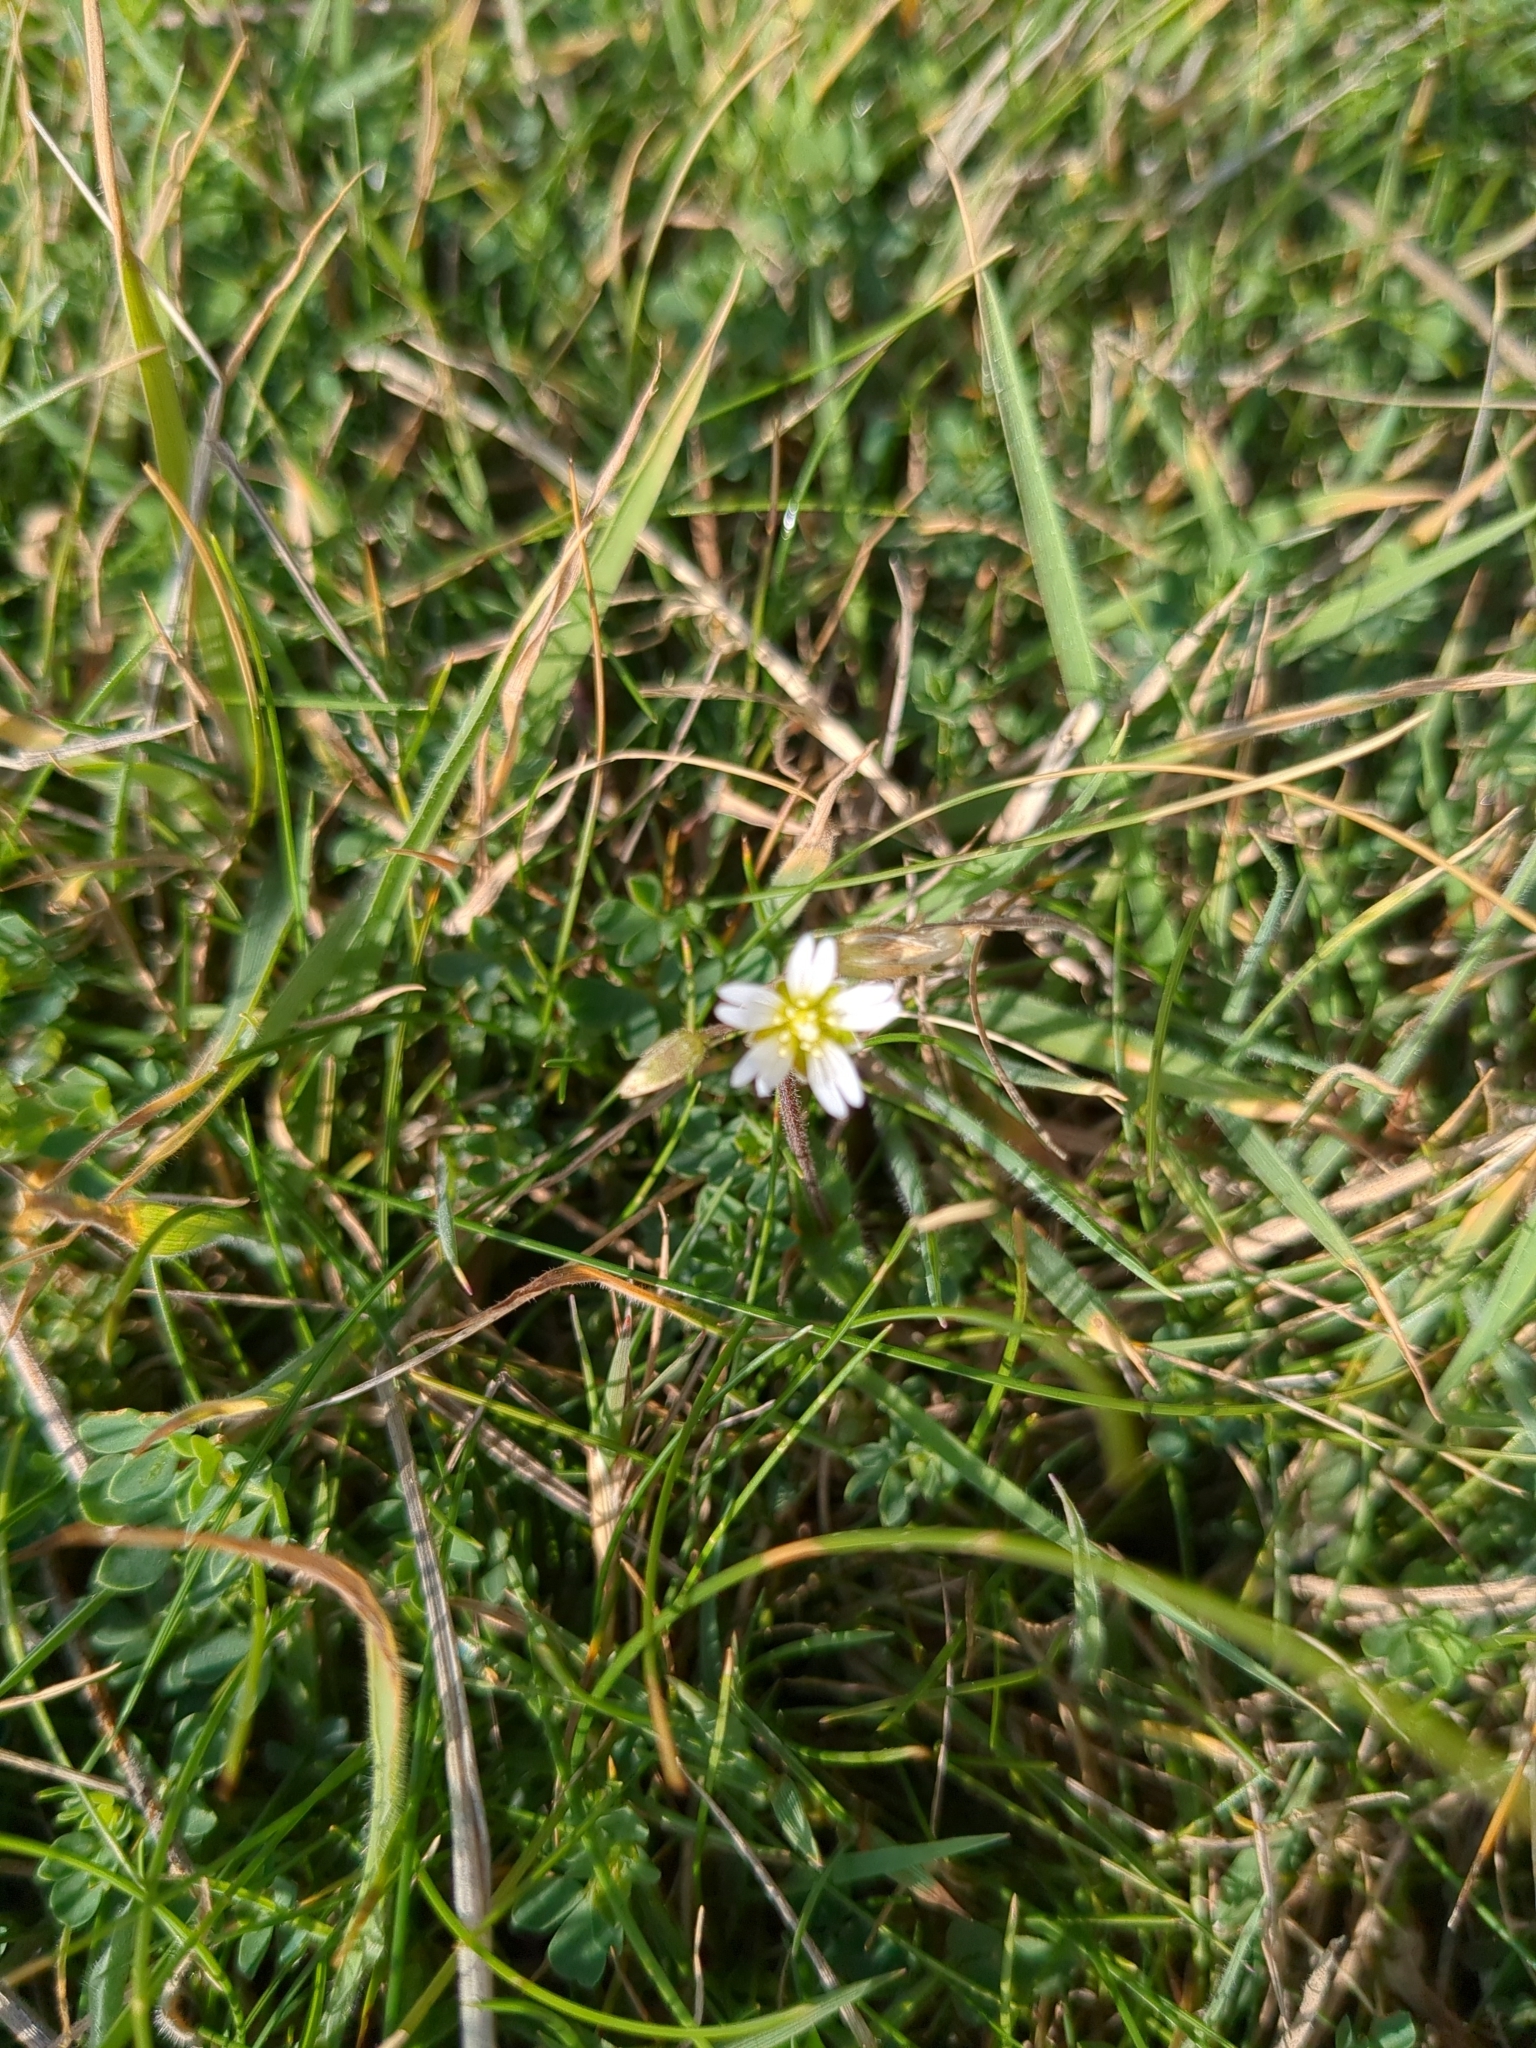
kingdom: Plantae
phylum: Tracheophyta
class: Magnoliopsida
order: Caryophyllales
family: Caryophyllaceae
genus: Cerastium
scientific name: Cerastium fontanum
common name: Common mouse-ear
